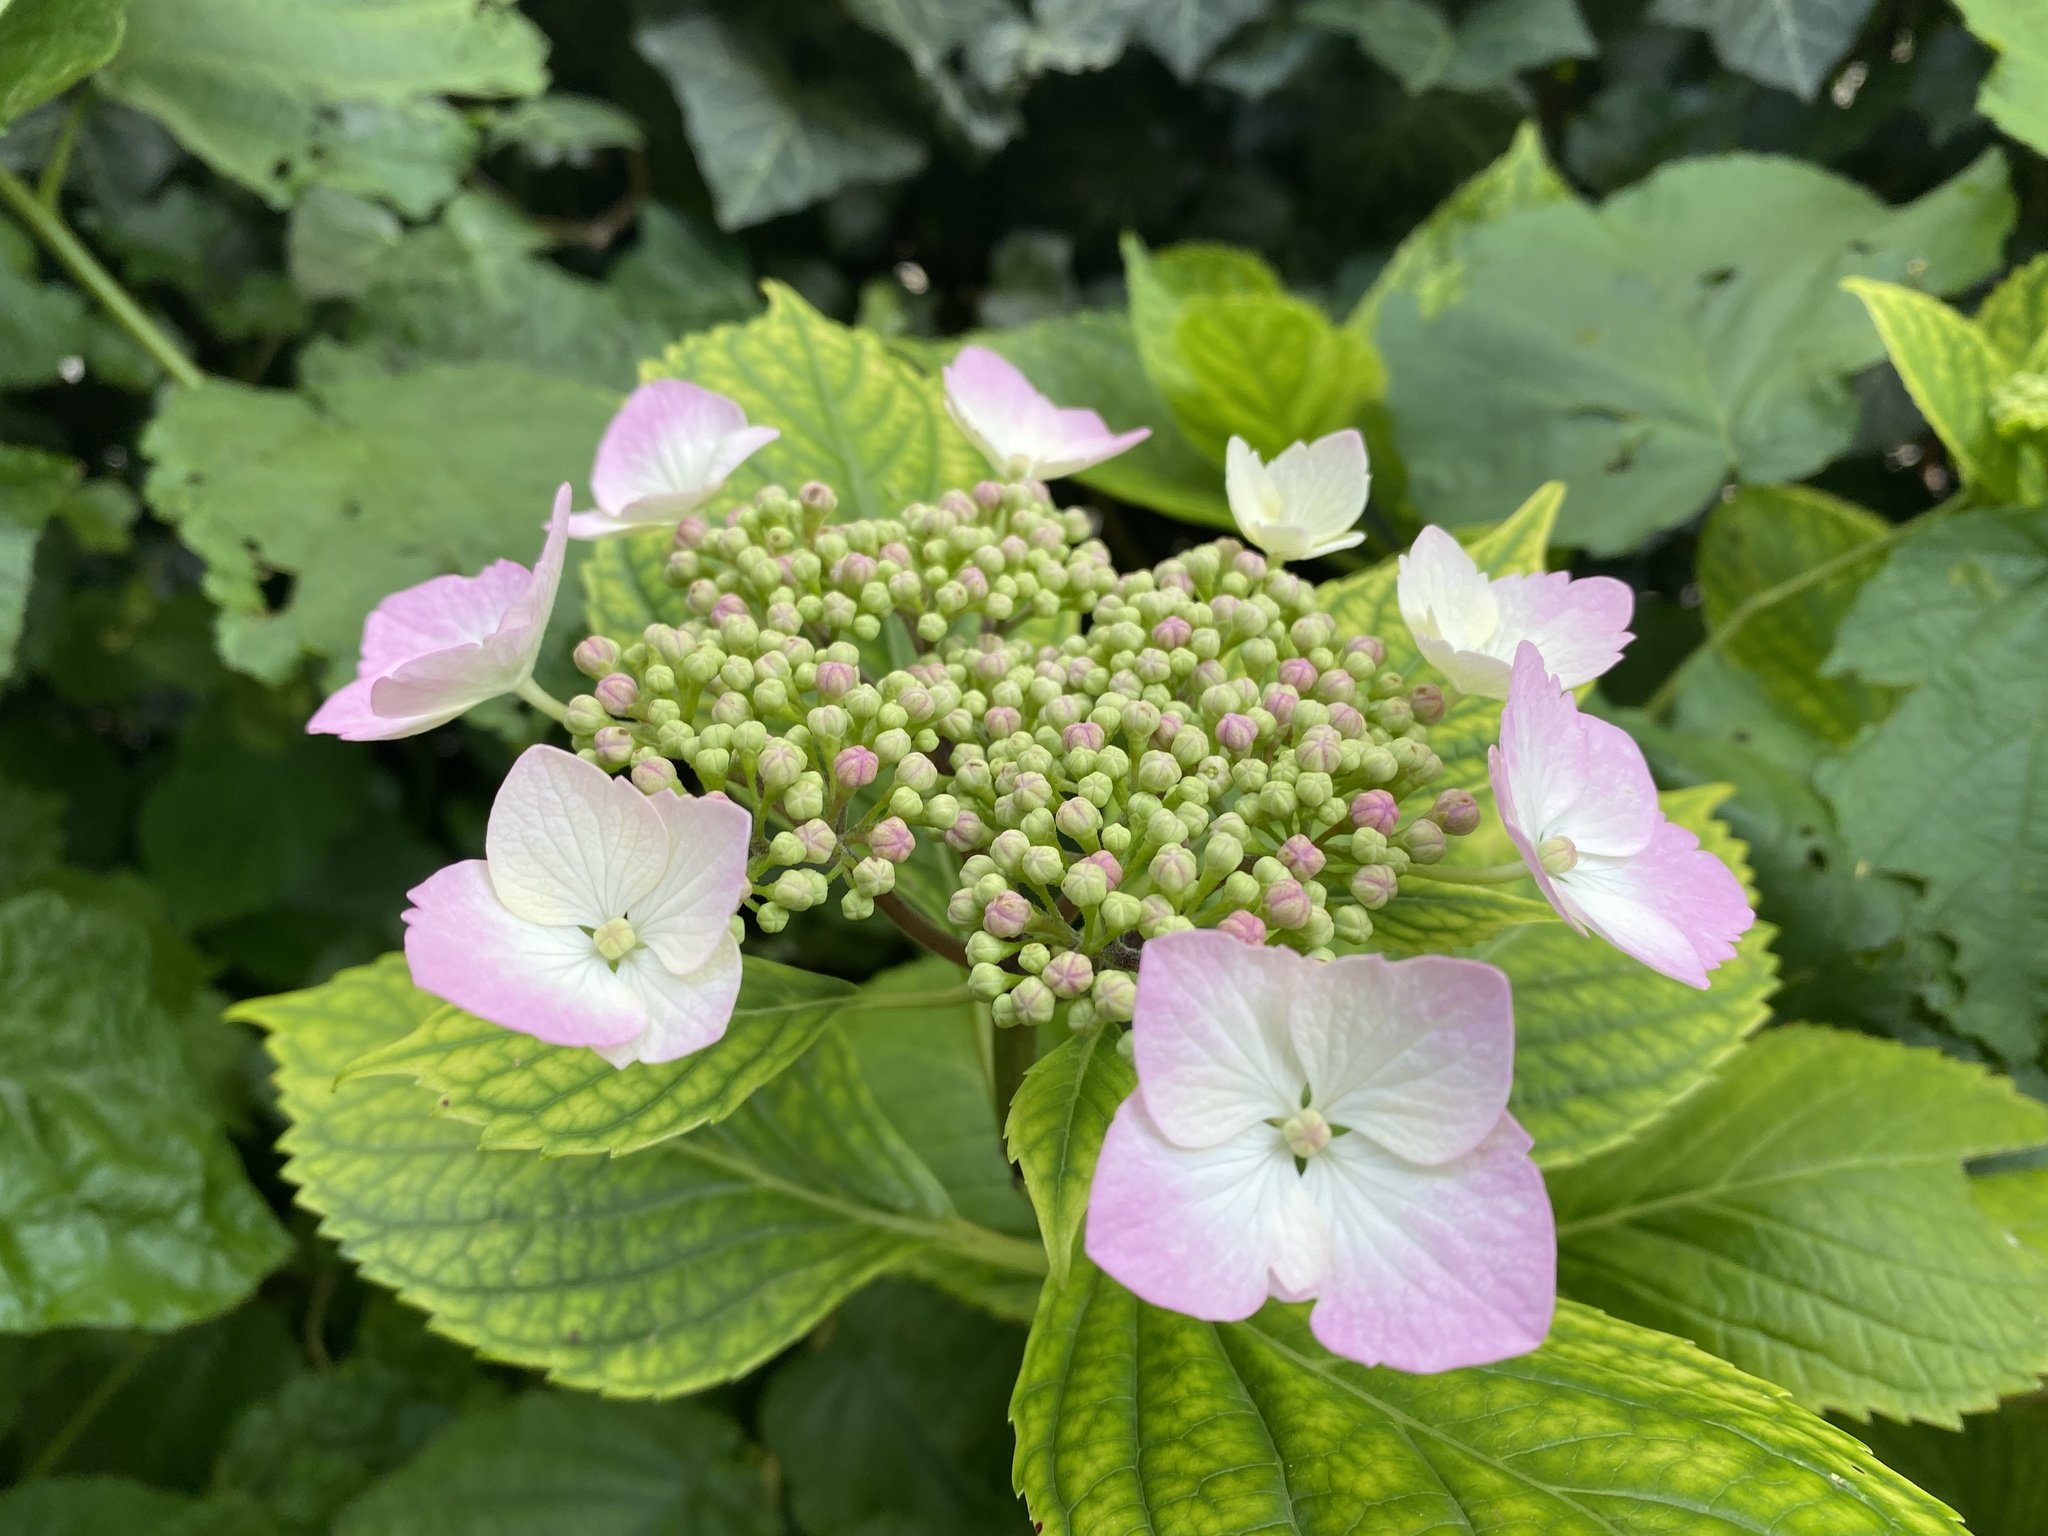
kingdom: Plantae
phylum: Tracheophyta
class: Magnoliopsida
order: Cornales
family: Hydrangeaceae
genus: Hydrangea
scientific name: Hydrangea macrophylla
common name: Hydrangea
